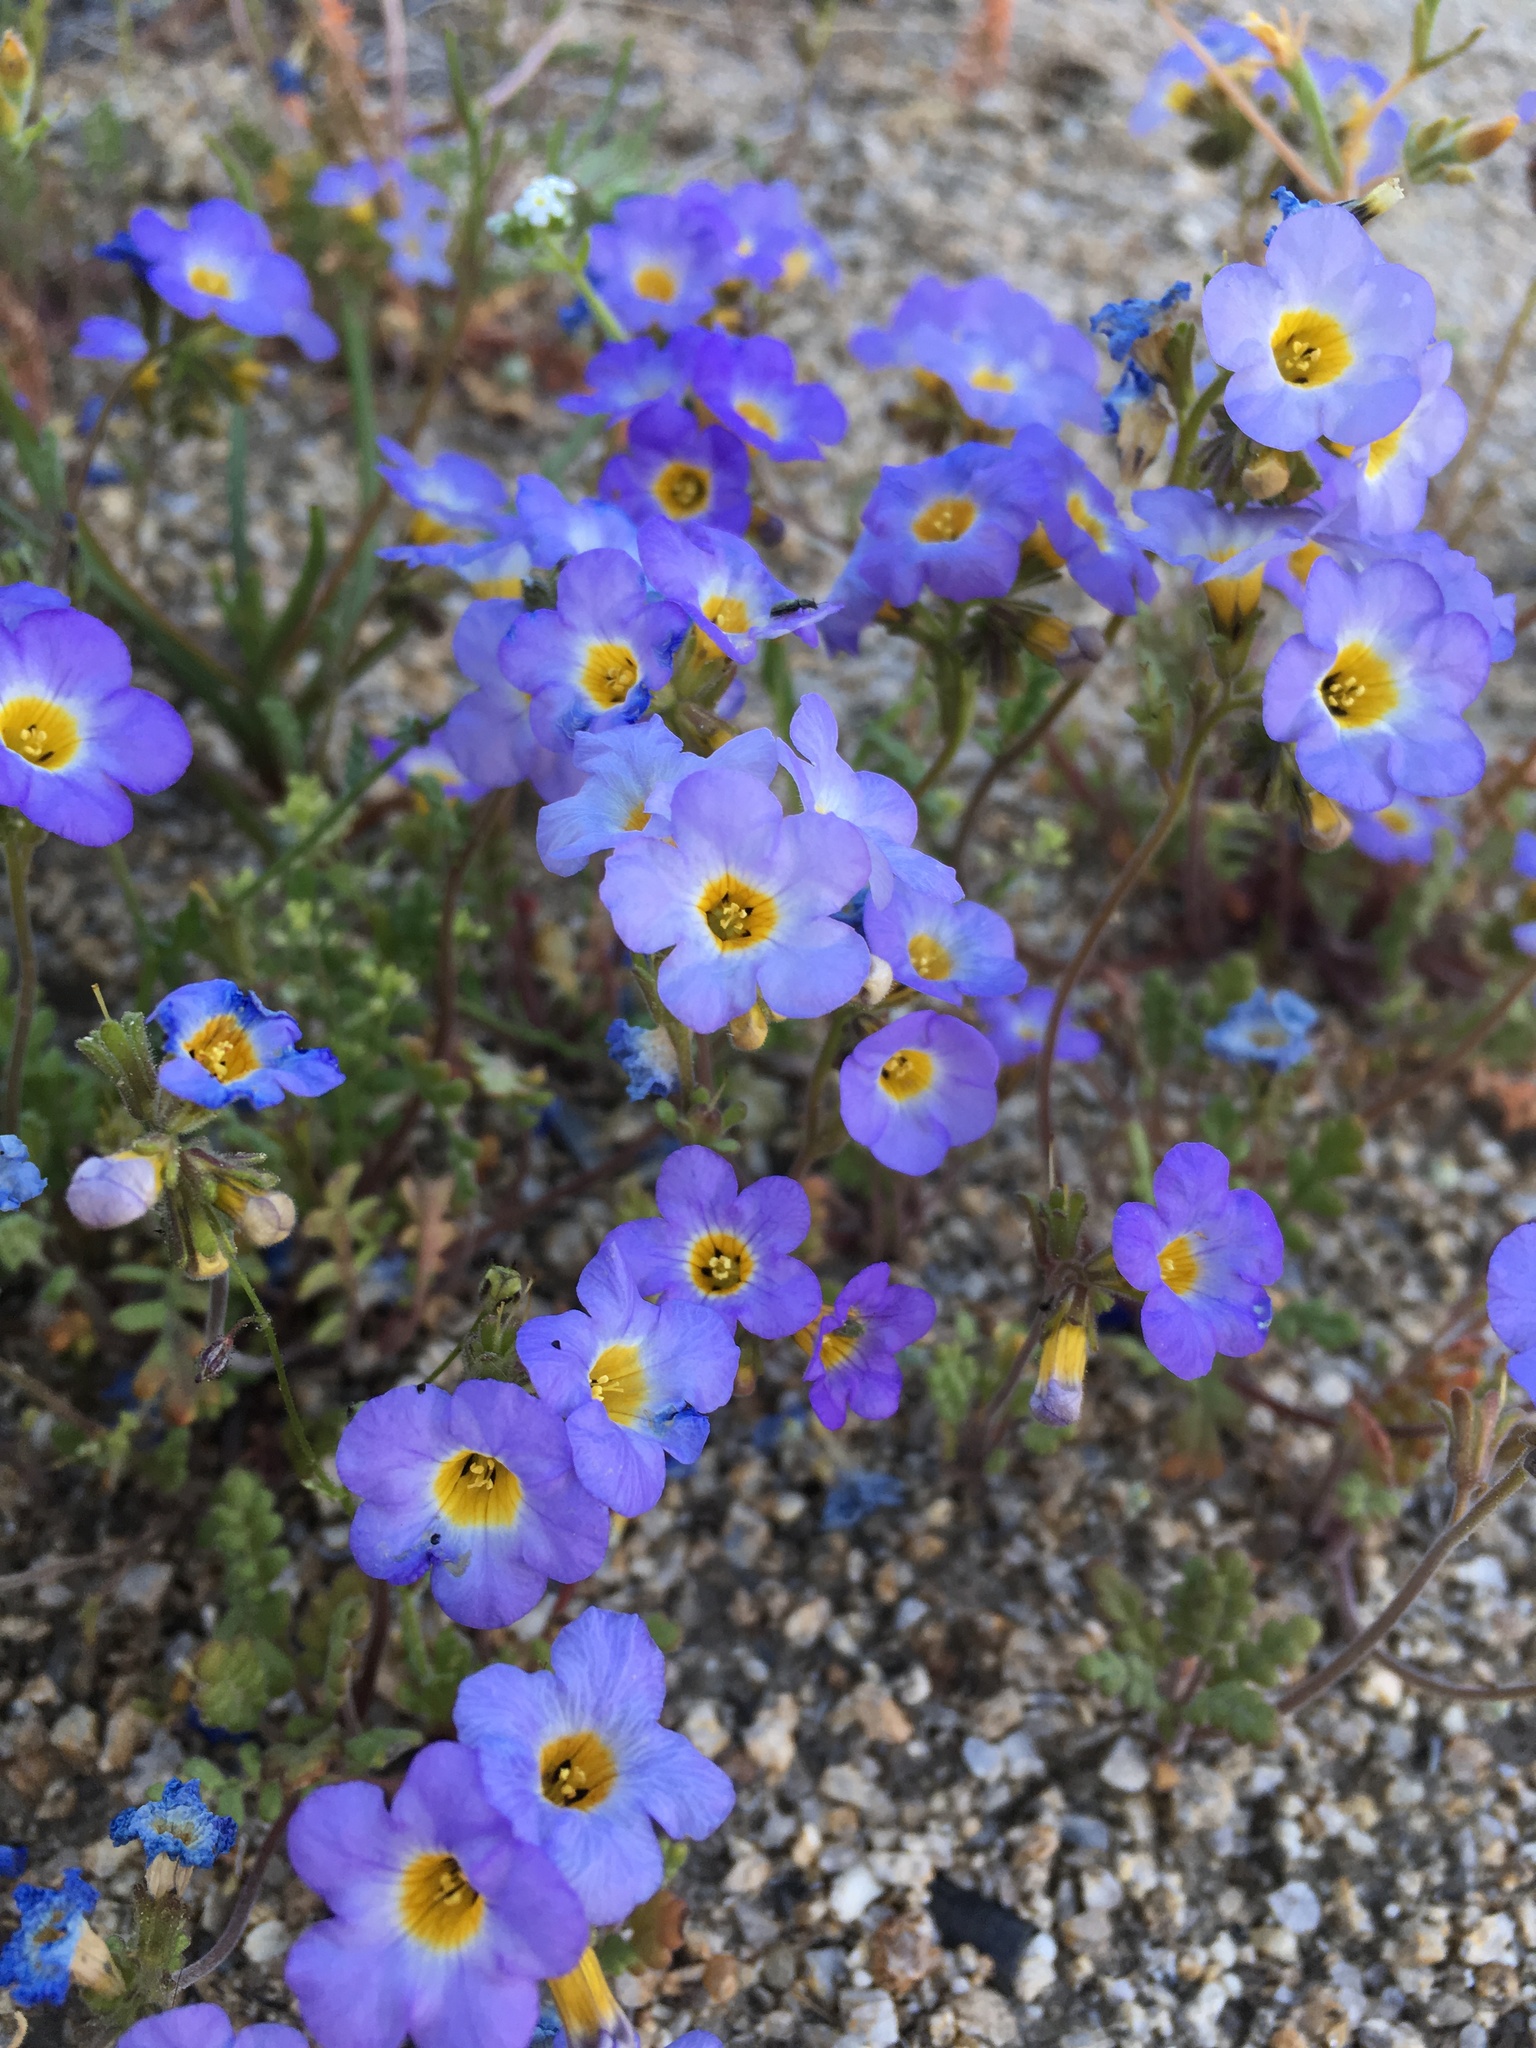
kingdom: Plantae
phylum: Tracheophyta
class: Magnoliopsida
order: Boraginales
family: Hydrophyllaceae
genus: Phacelia
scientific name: Phacelia fremontii
